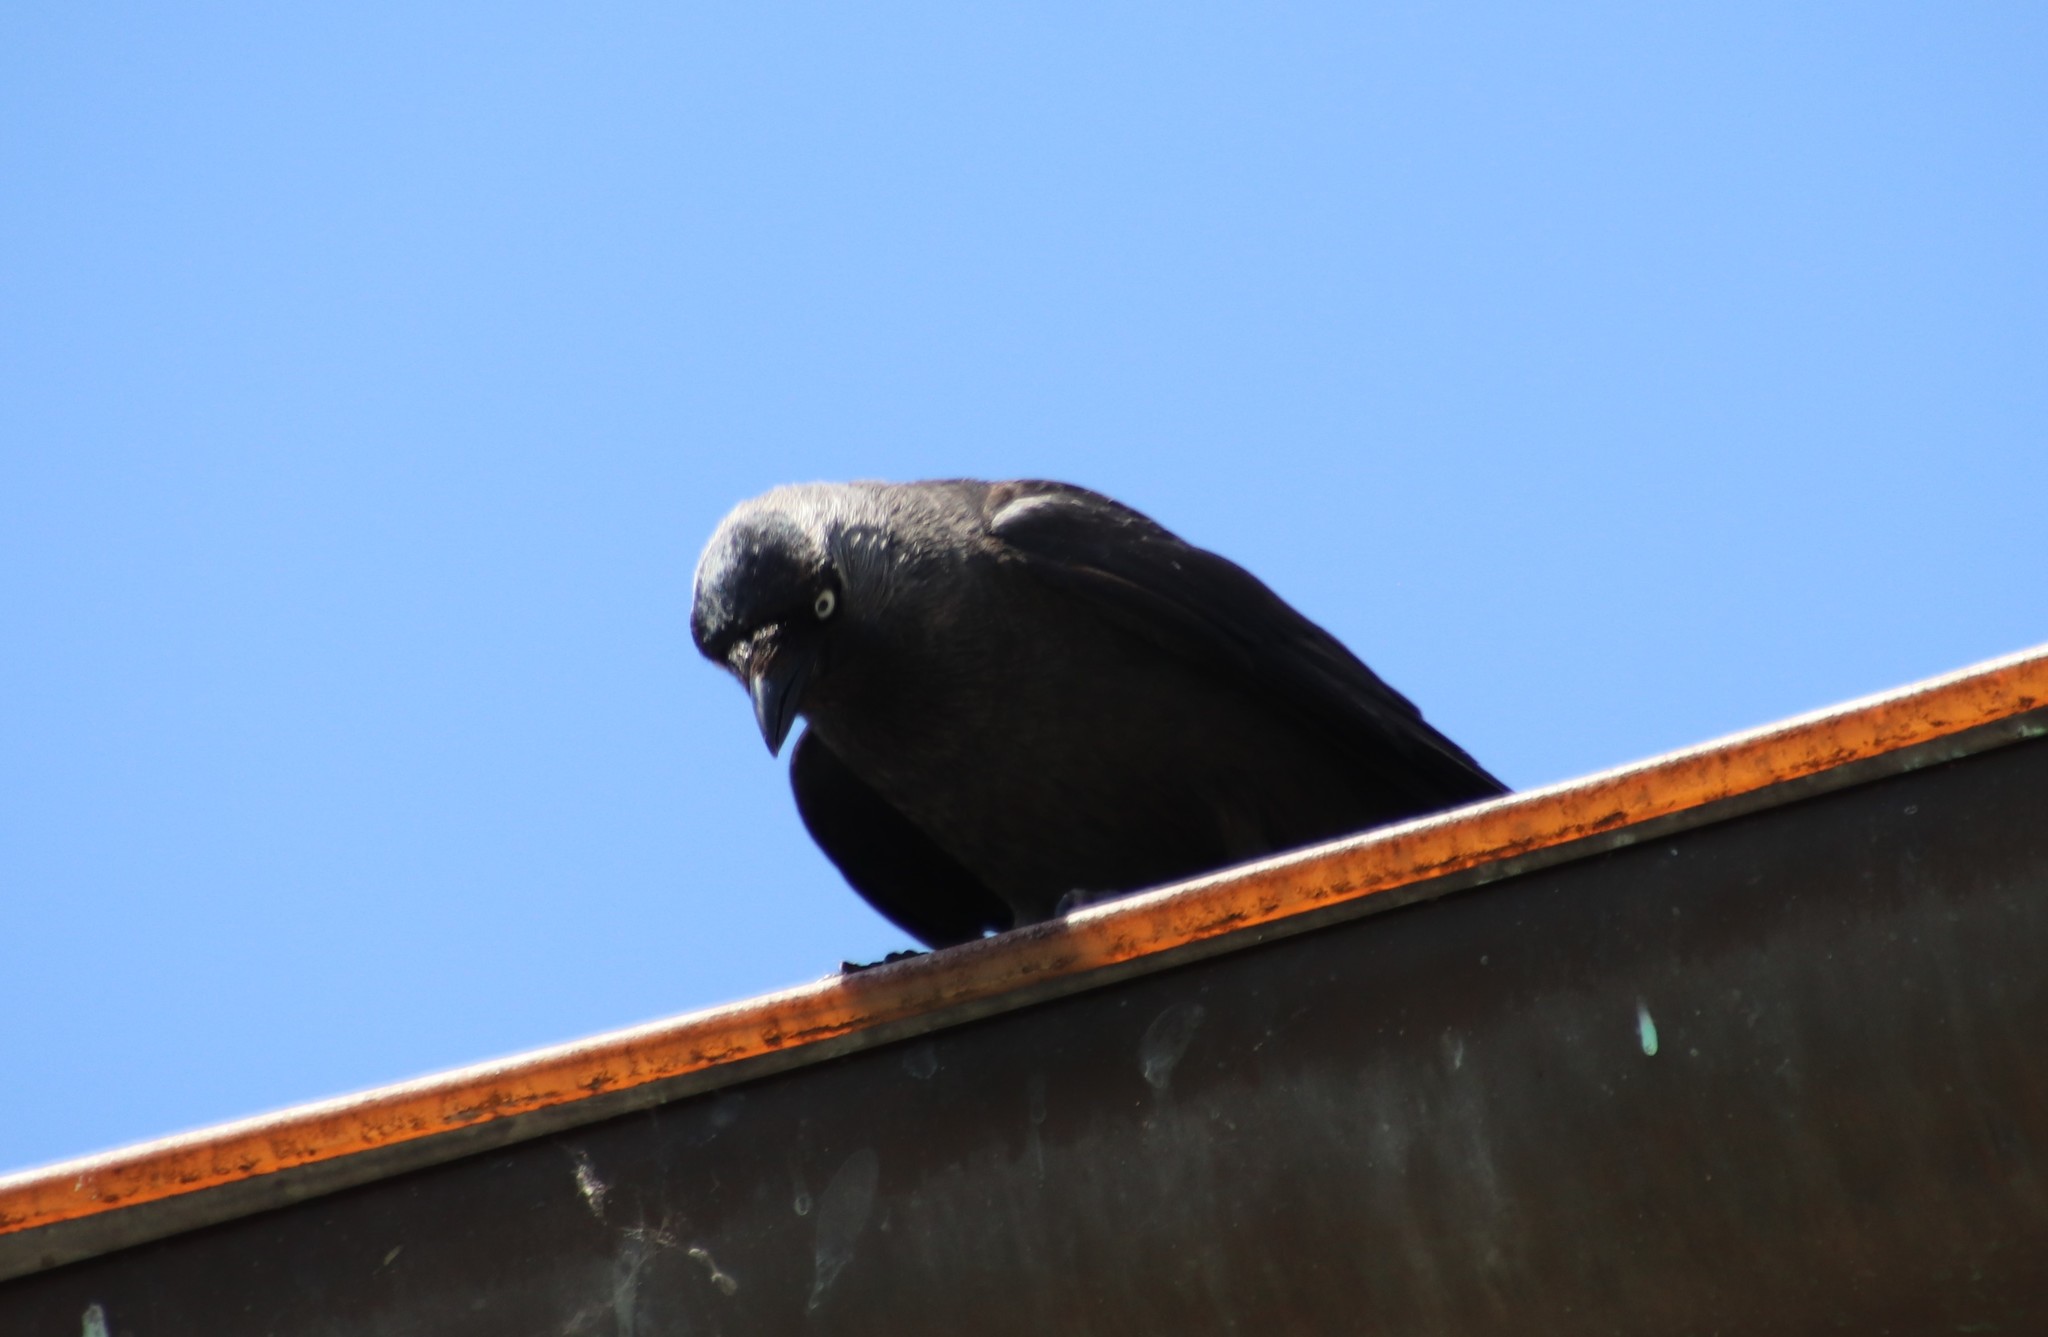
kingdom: Animalia
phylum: Chordata
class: Aves
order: Passeriformes
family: Corvidae
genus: Coloeus
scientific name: Coloeus monedula
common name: Western jackdaw
